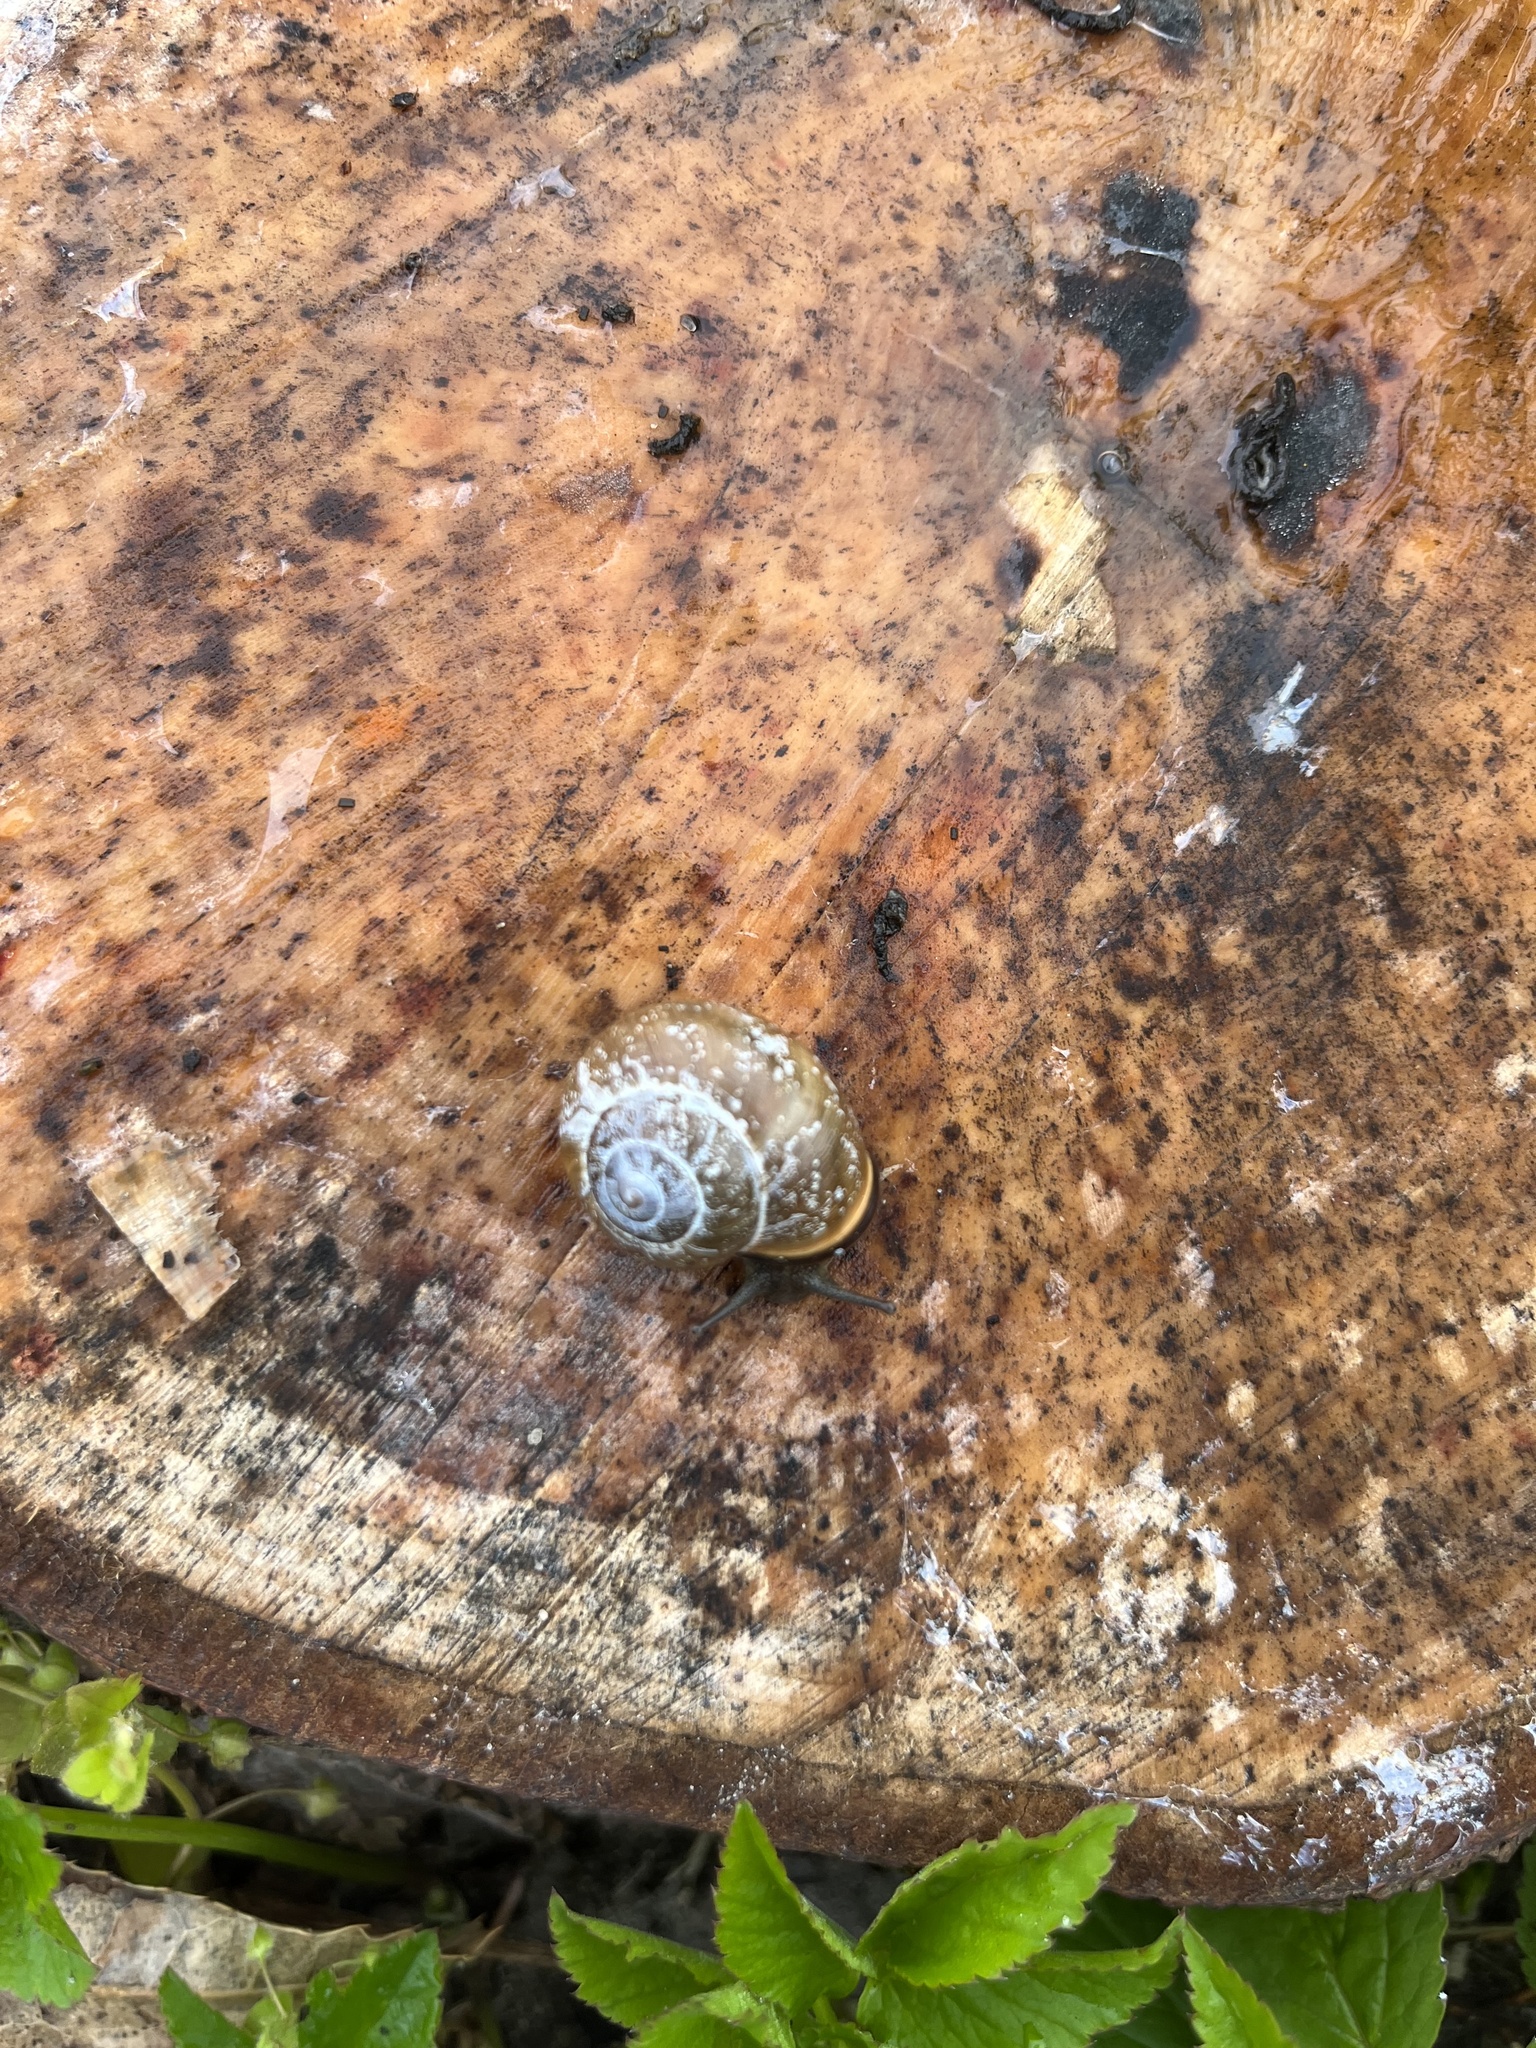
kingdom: Animalia
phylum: Mollusca
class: Gastropoda
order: Stylommatophora
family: Helicidae
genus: Cepaea
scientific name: Cepaea nemoralis
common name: Grovesnail
